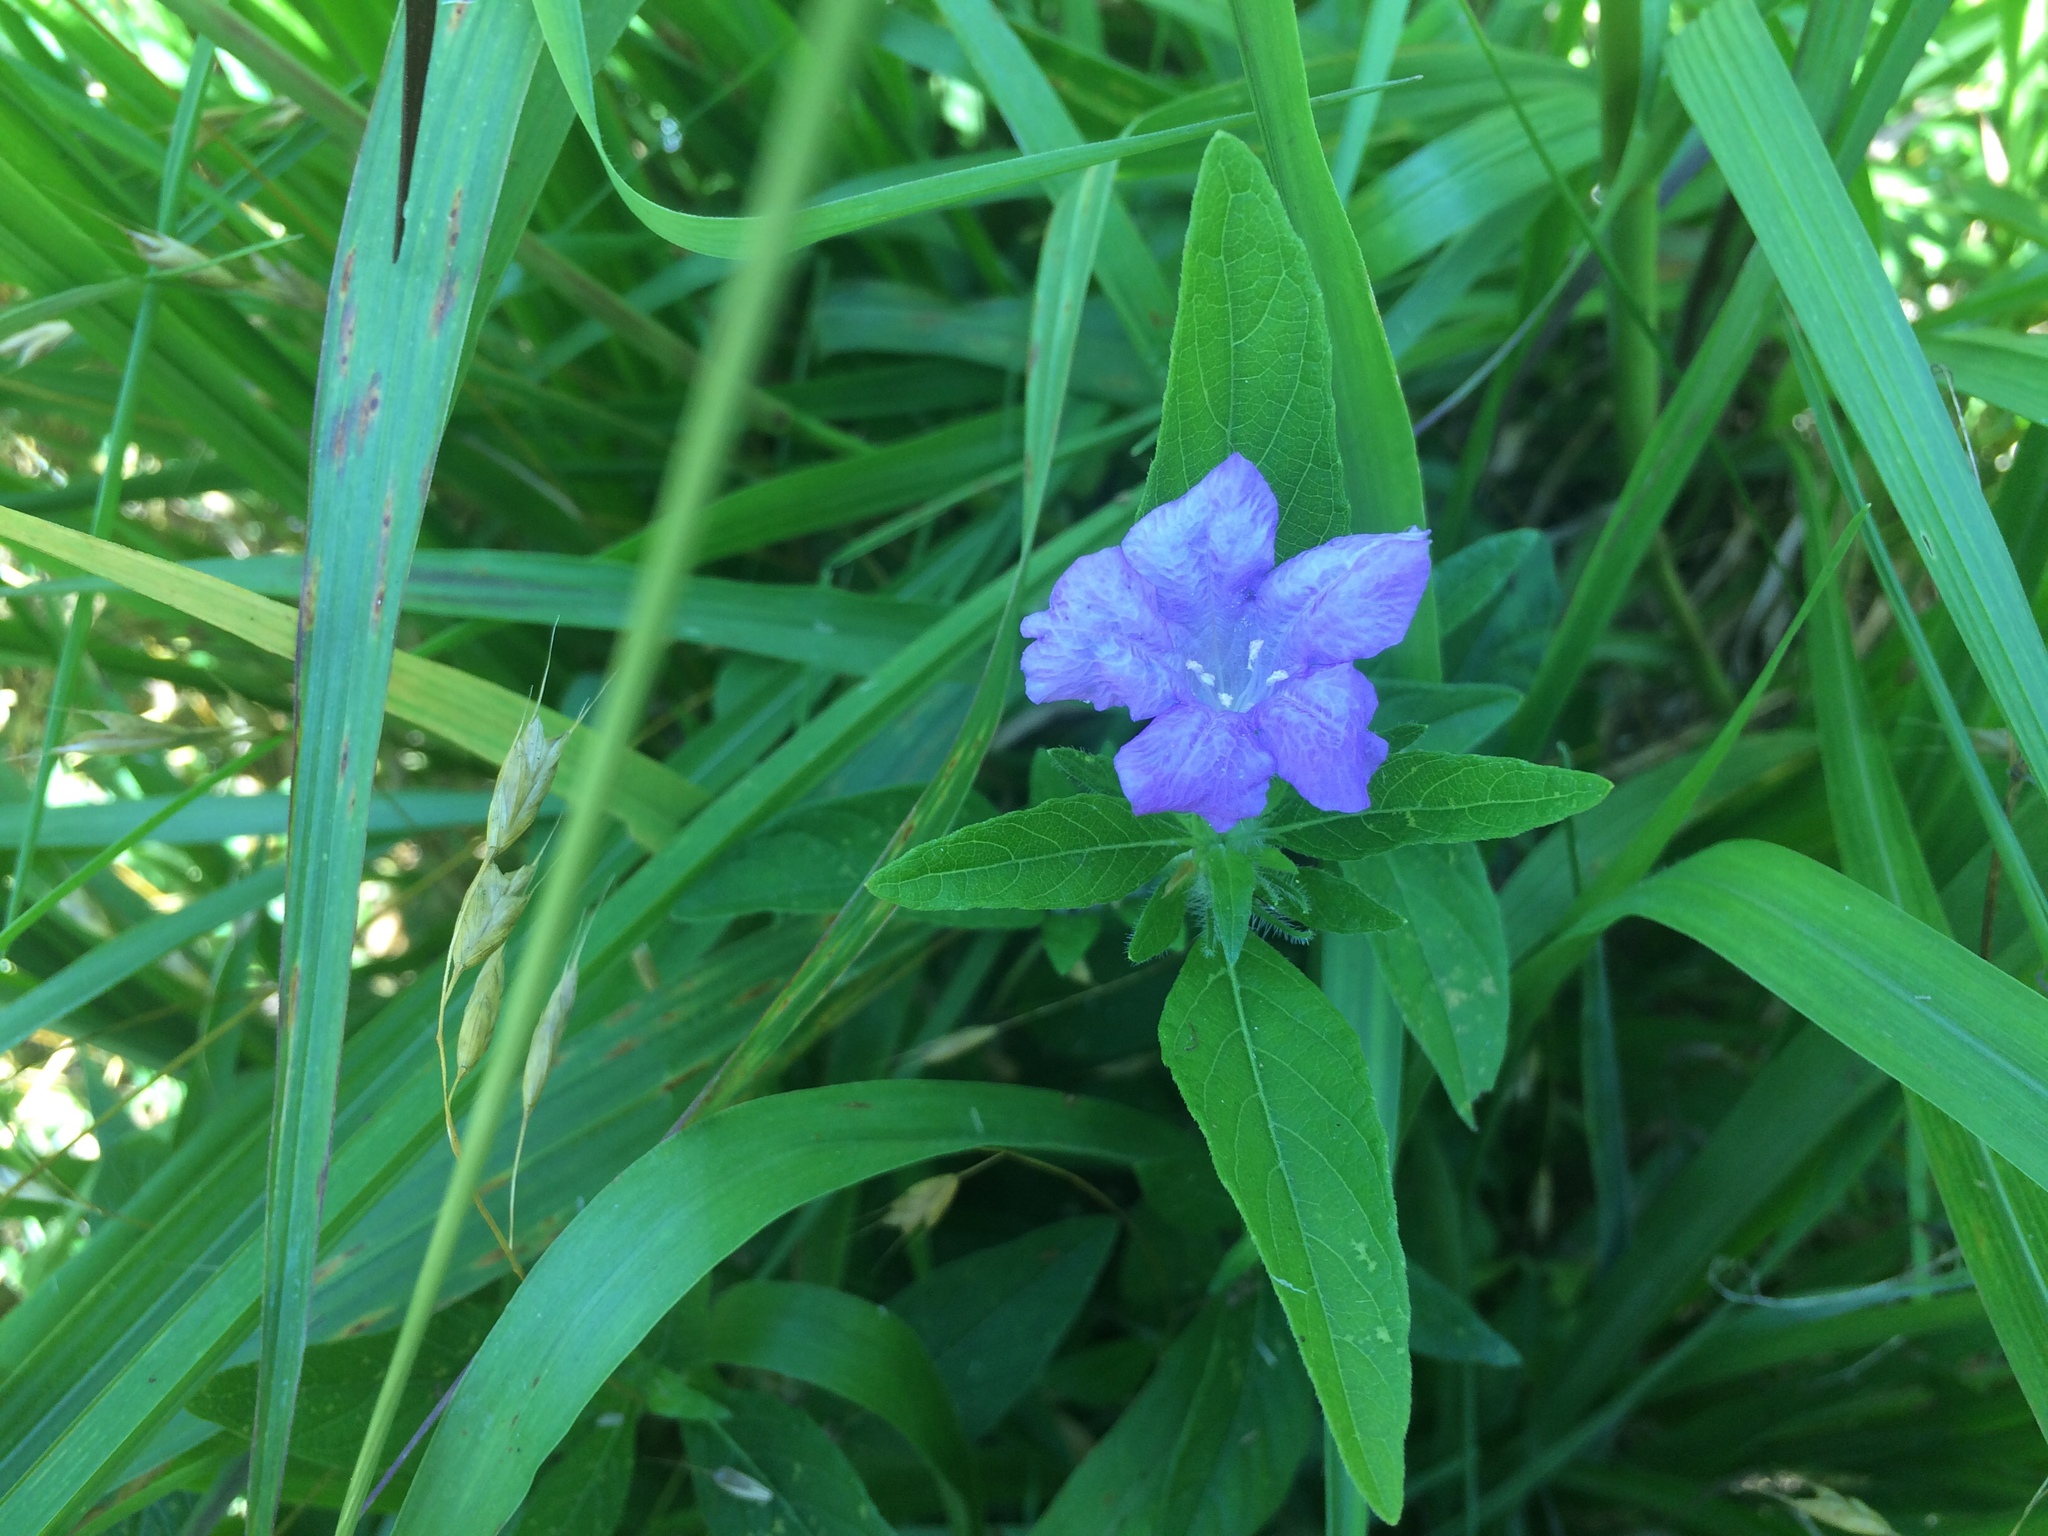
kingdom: Plantae
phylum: Tracheophyta
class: Magnoliopsida
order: Lamiales
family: Acanthaceae
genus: Ruellia
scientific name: Ruellia caroliniensis
